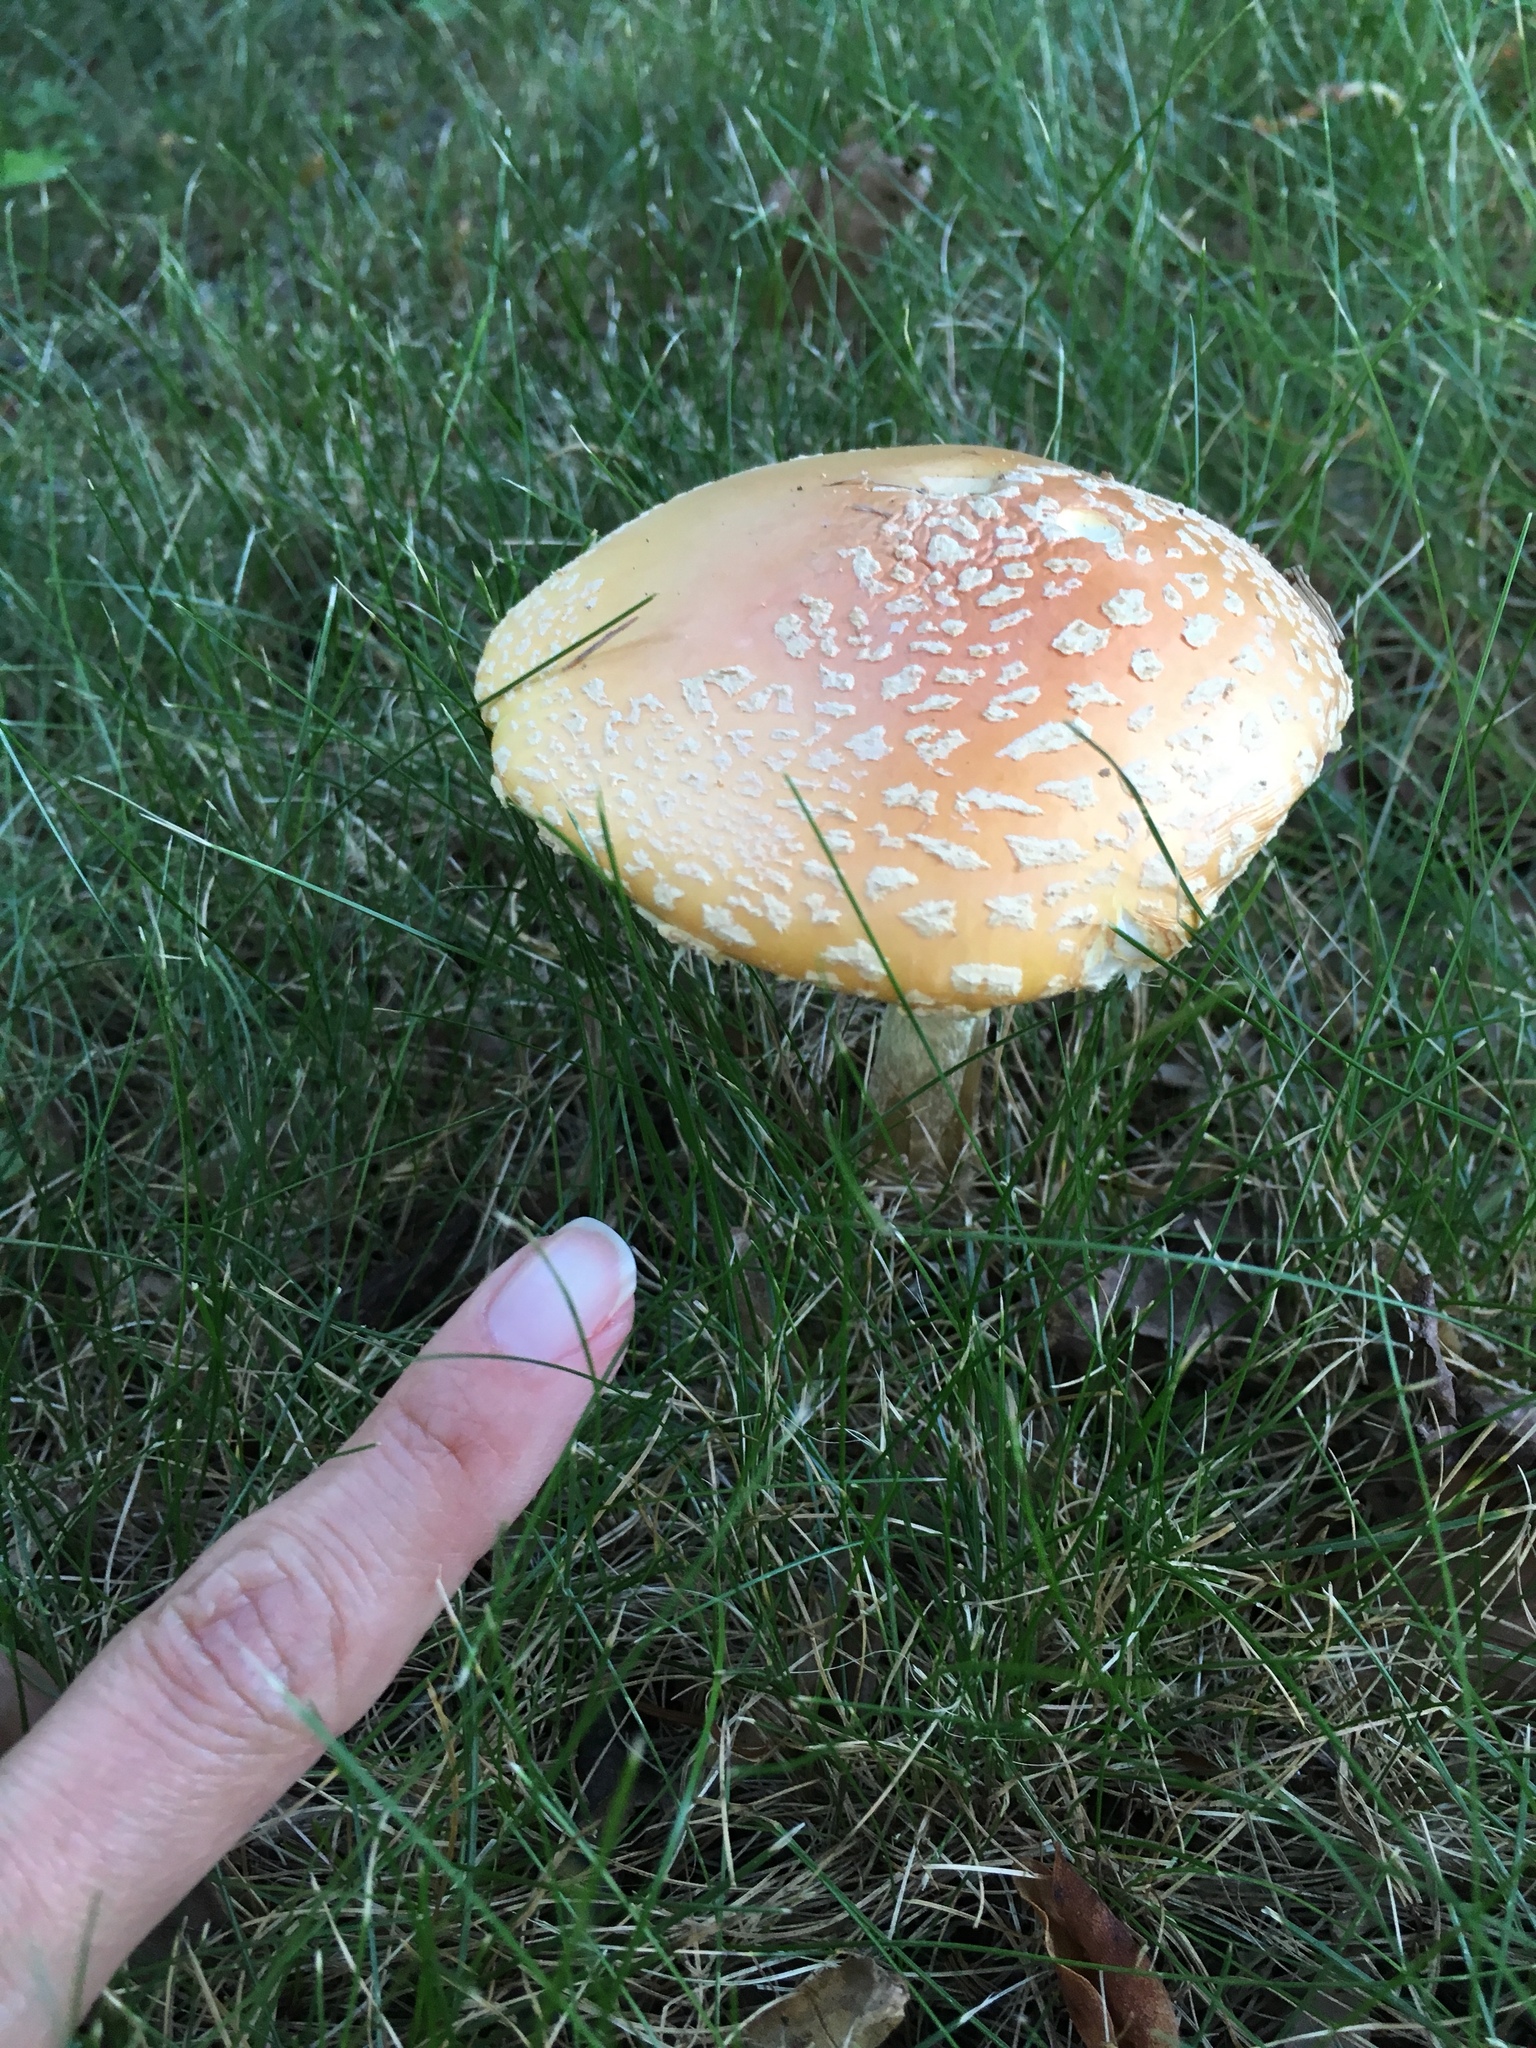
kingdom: Fungi
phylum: Basidiomycota
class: Agaricomycetes
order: Agaricales
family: Amanitaceae
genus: Amanita
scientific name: Amanita muscaria
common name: Fly agaric
